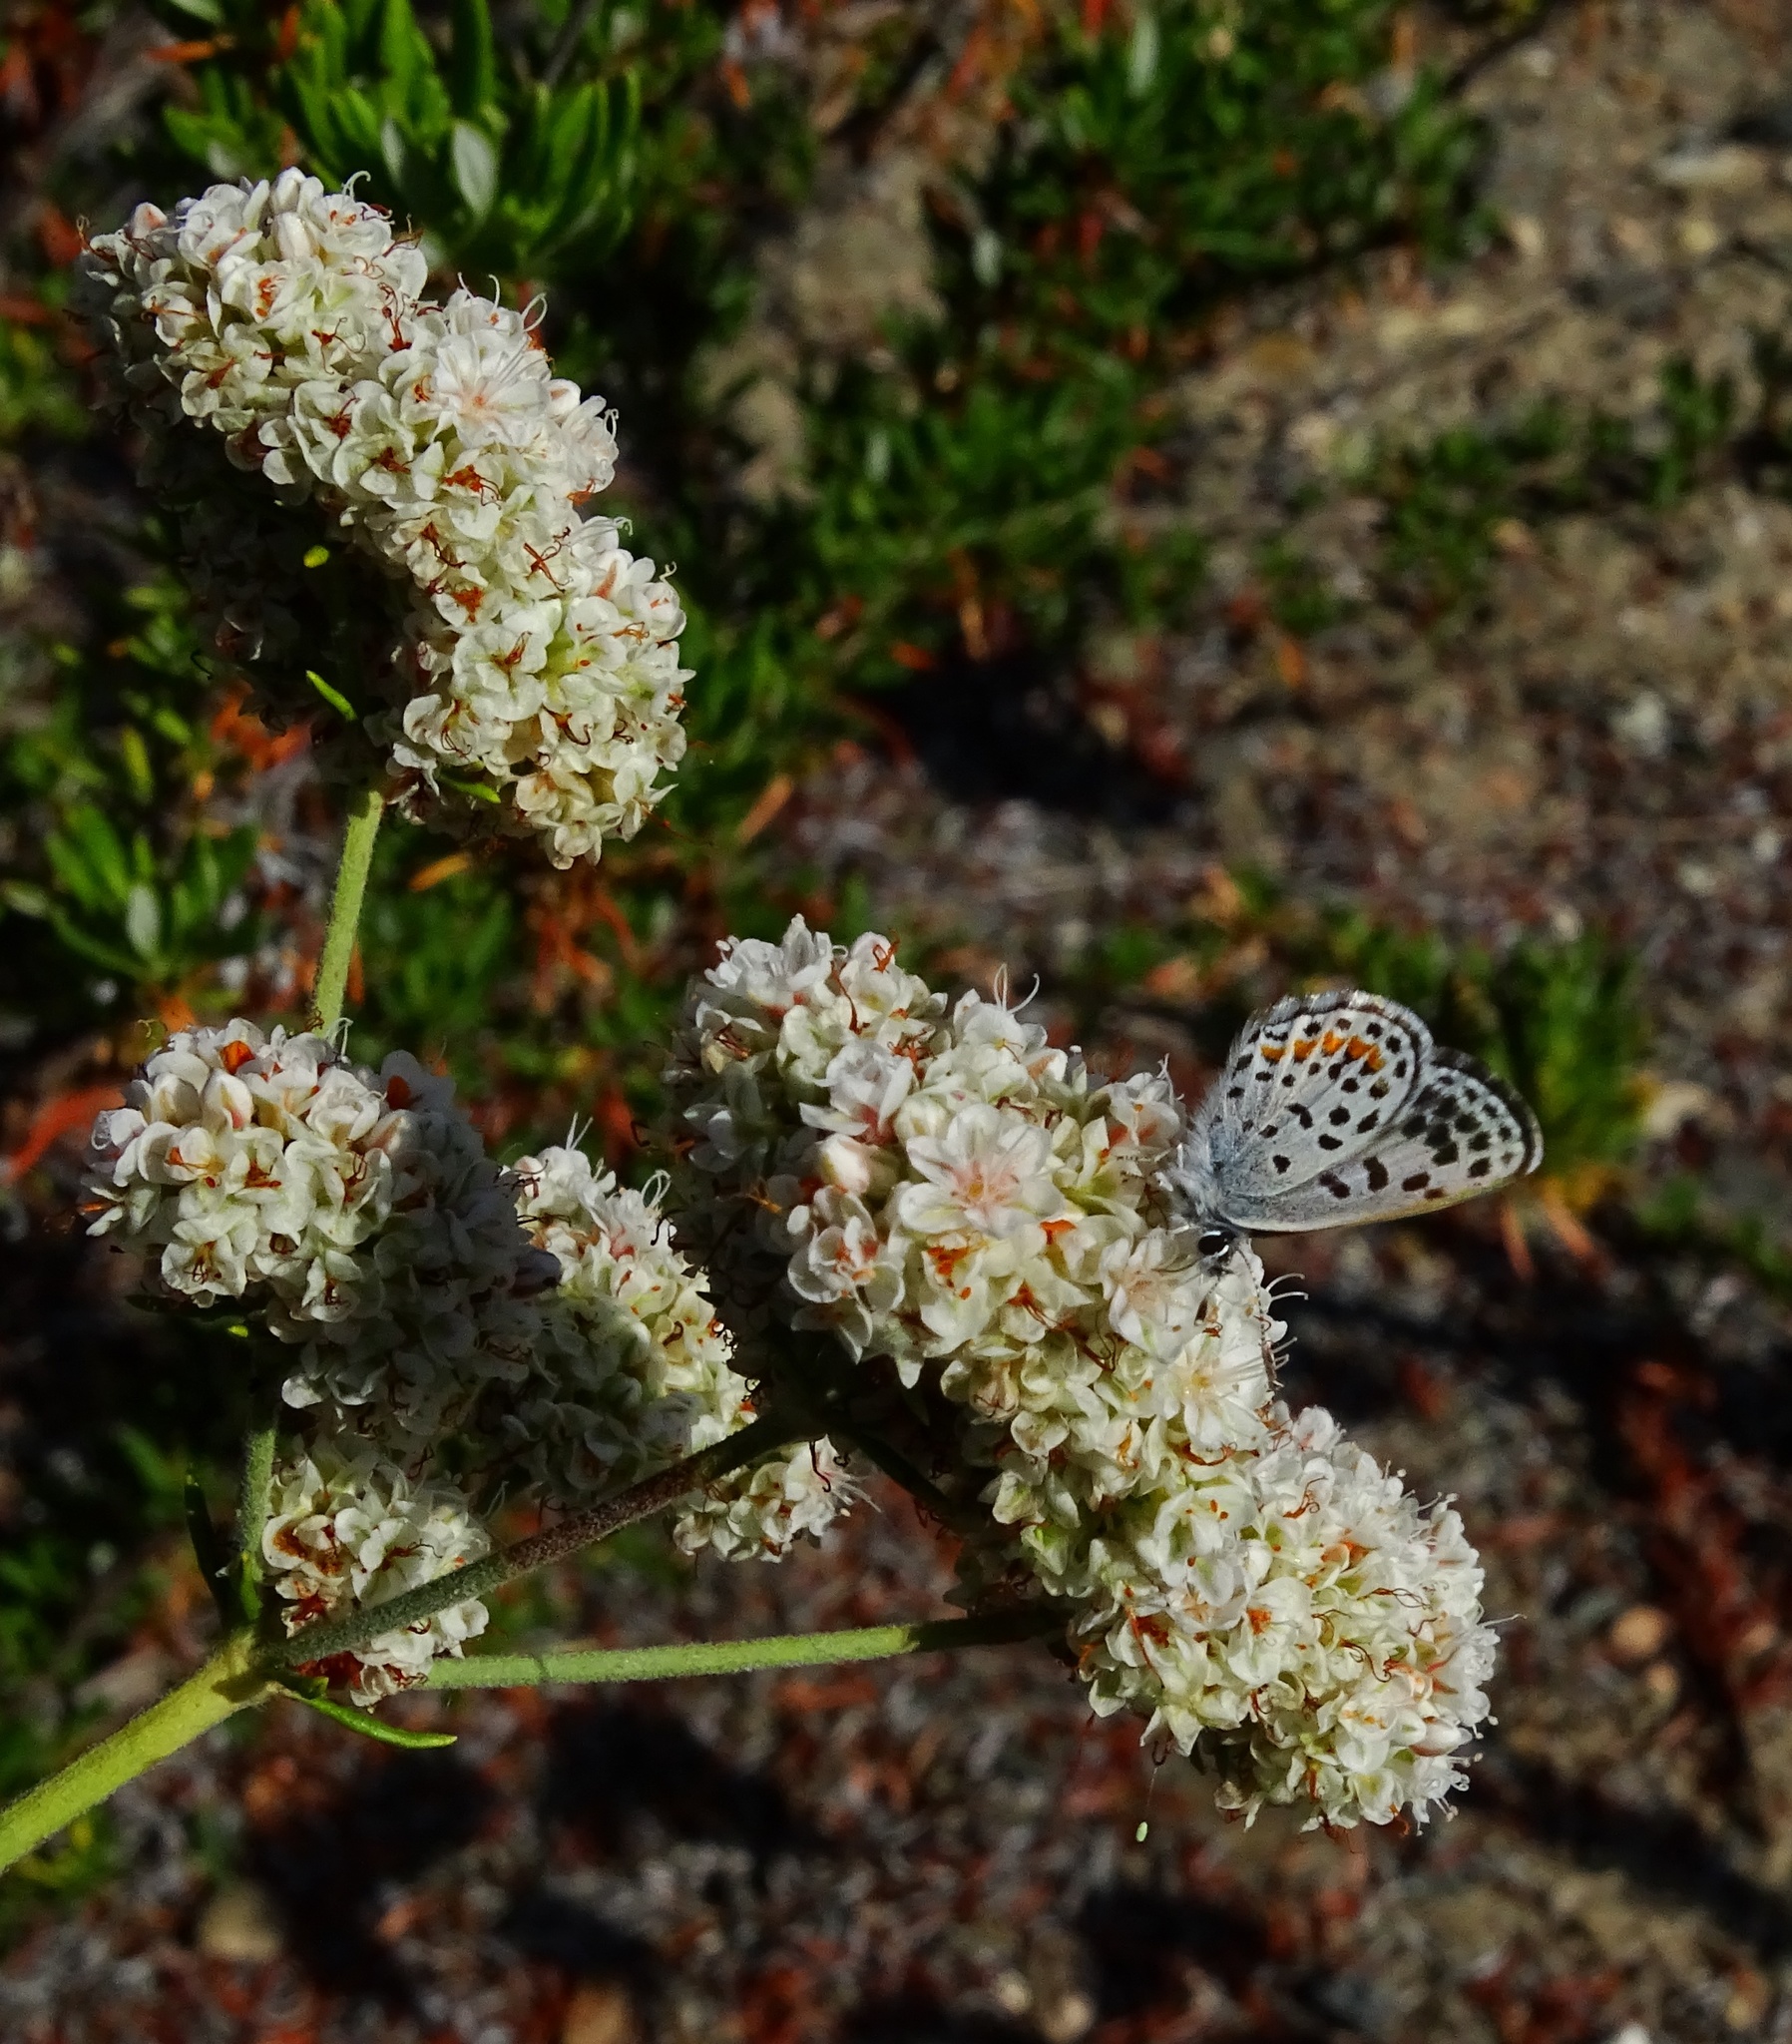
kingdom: Animalia
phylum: Arthropoda
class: Insecta
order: Lepidoptera
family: Lycaenidae
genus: Philotes
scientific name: Philotes bernardino
